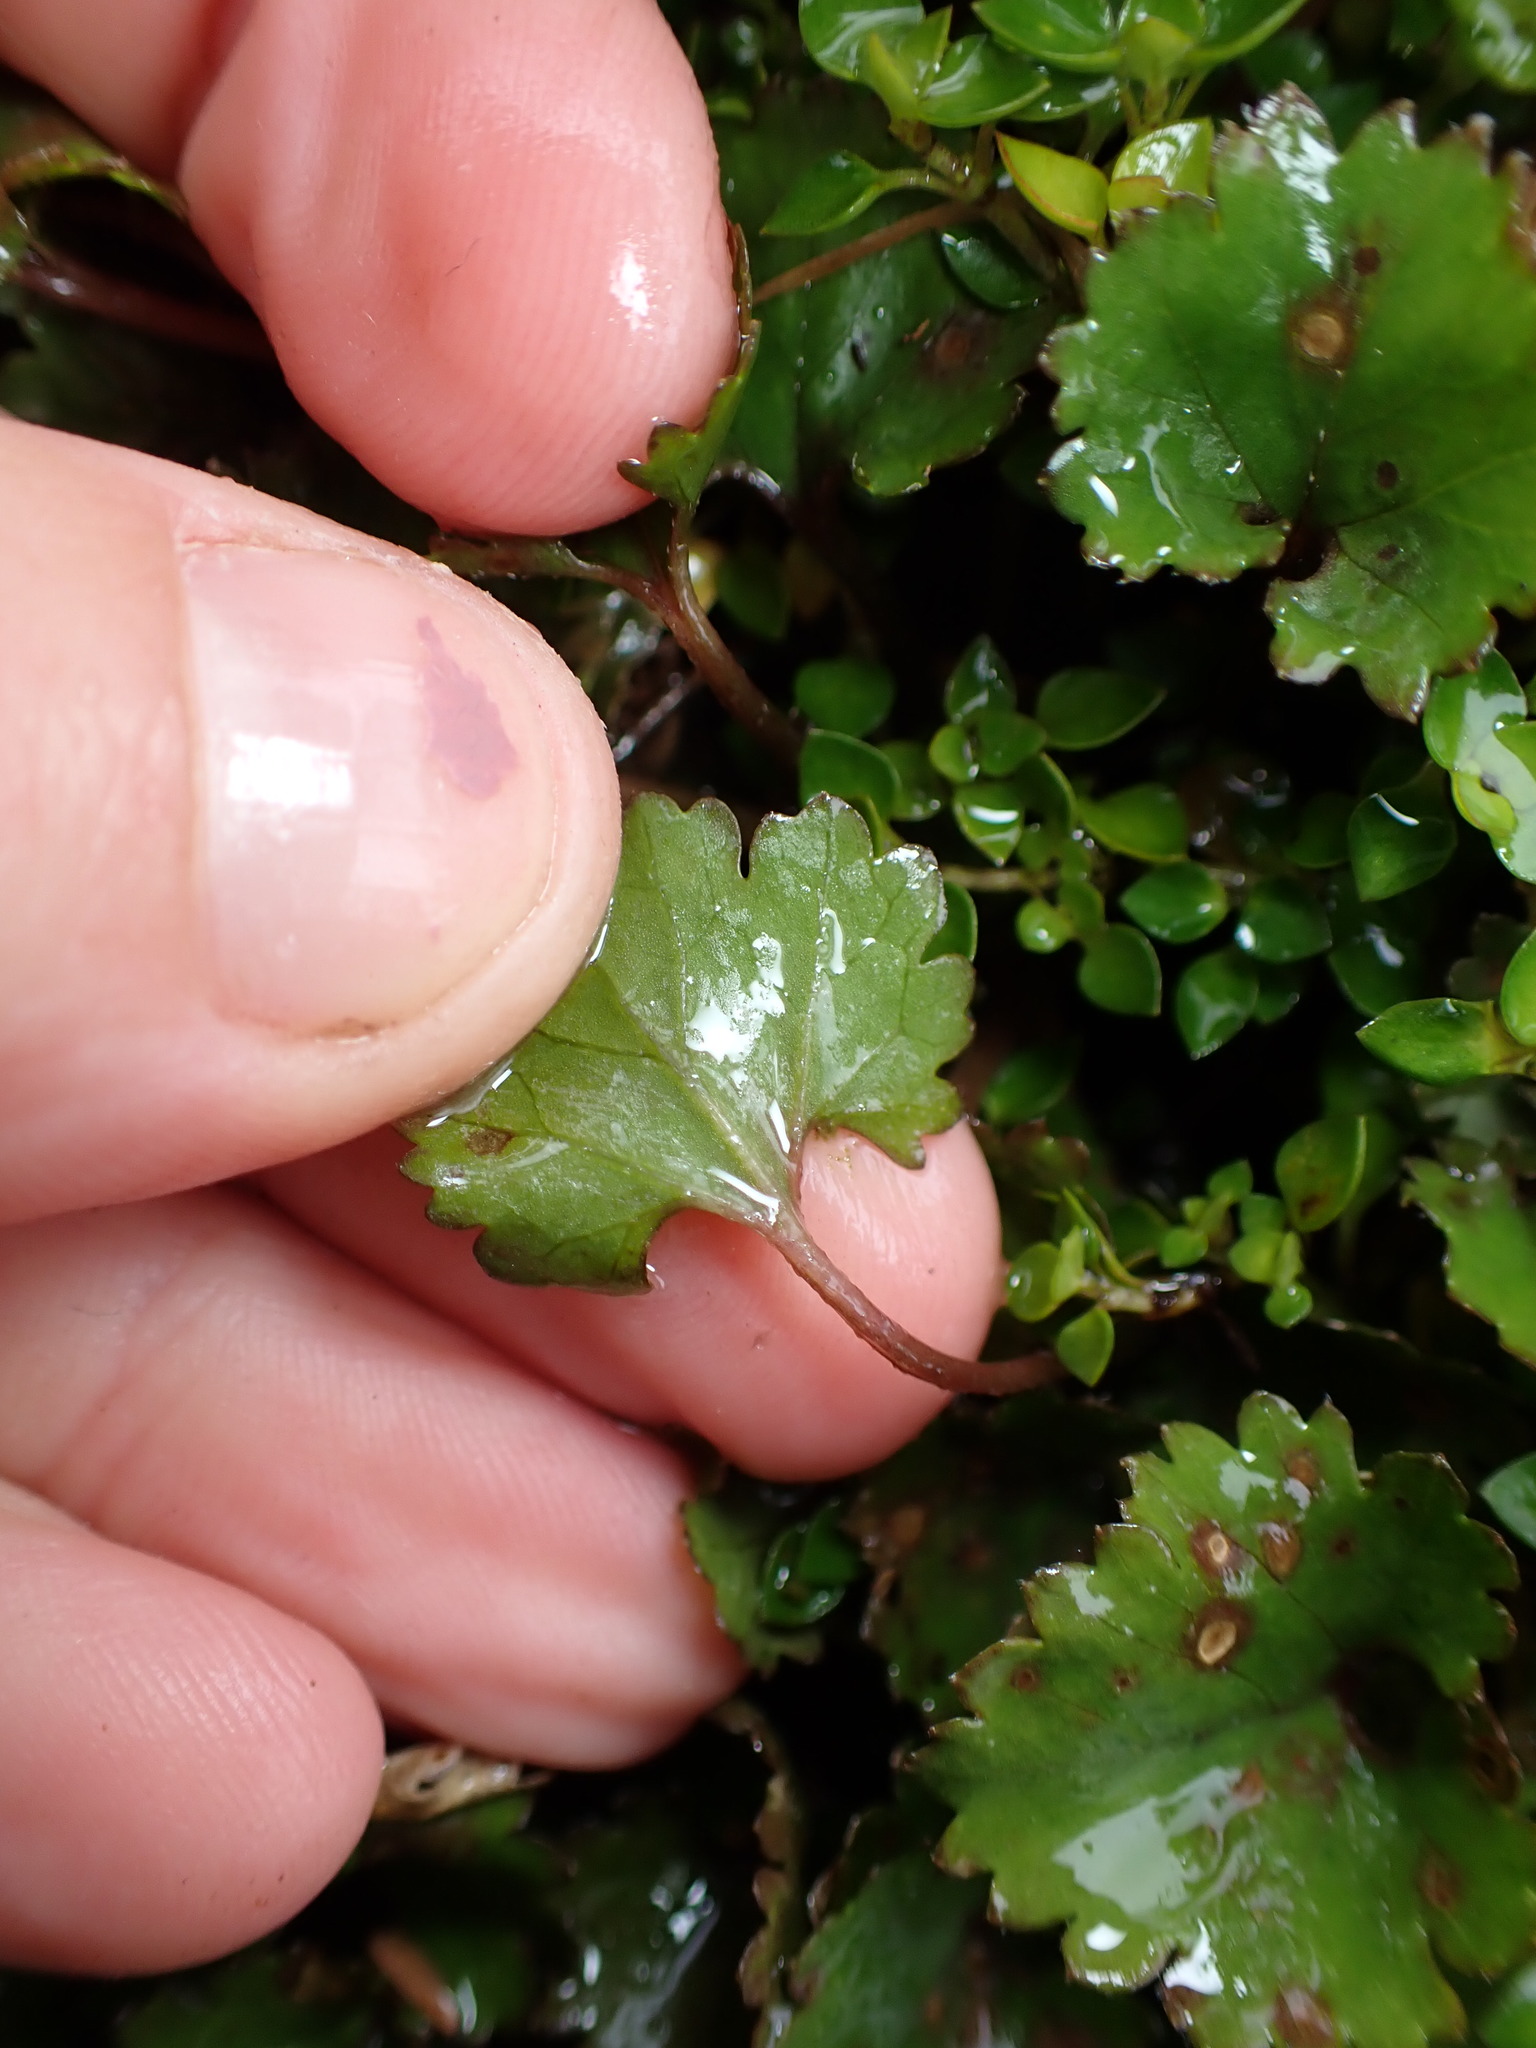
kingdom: Plantae
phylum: Tracheophyta
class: Magnoliopsida
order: Gunnerales
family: Gunneraceae
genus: Gunnera
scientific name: Gunnera monoica
